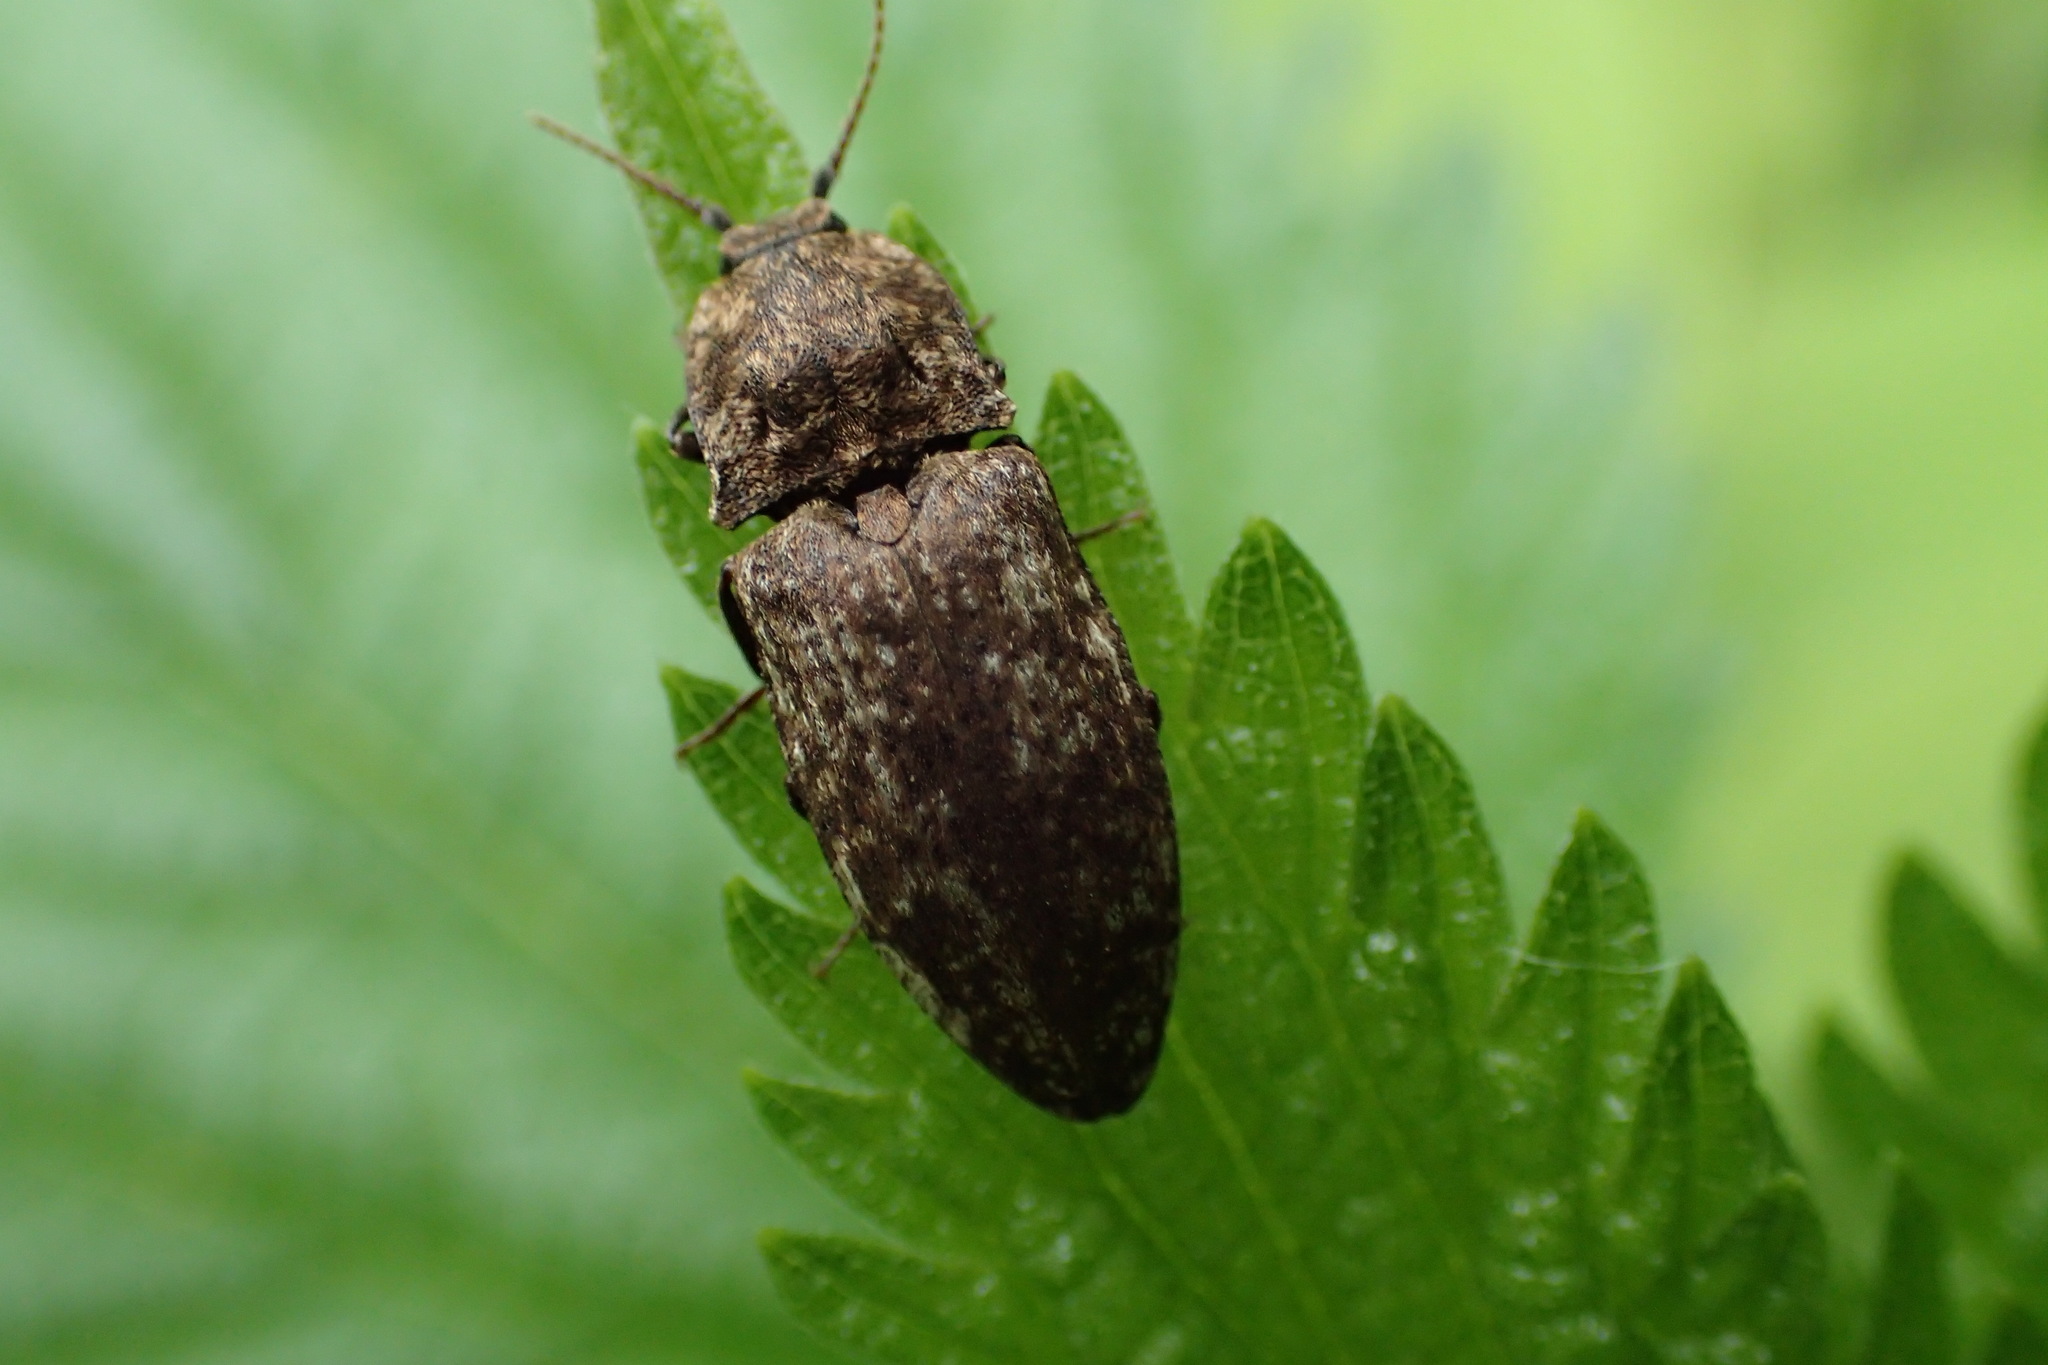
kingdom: Animalia
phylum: Arthropoda
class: Insecta
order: Coleoptera
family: Elateridae
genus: Agrypnus
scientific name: Agrypnus murinus
